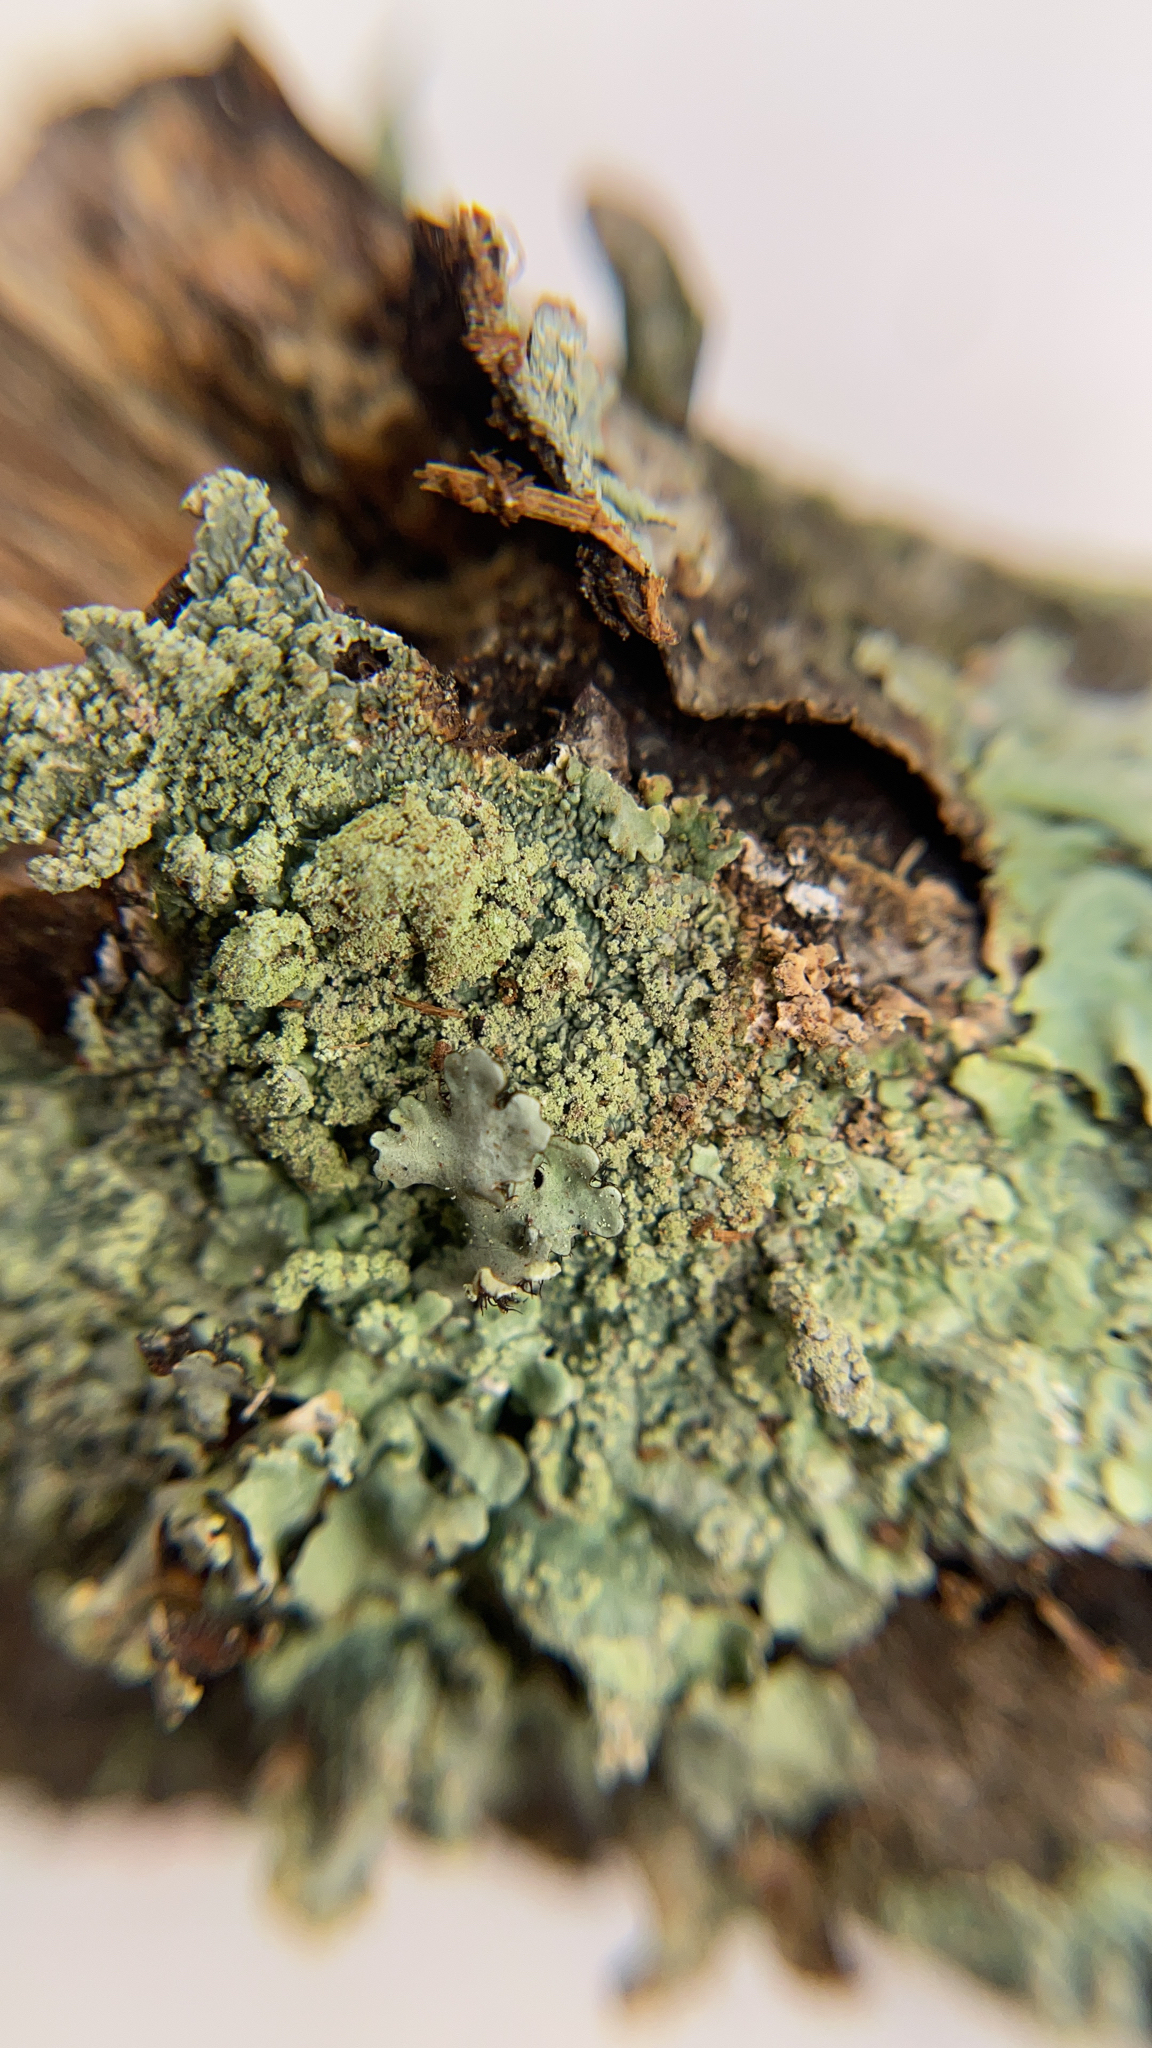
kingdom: Fungi
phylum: Ascomycota
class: Lecanoromycetes
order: Lecanorales
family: Parmeliaceae
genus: Canoparmelia
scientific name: Canoparmelia texana
